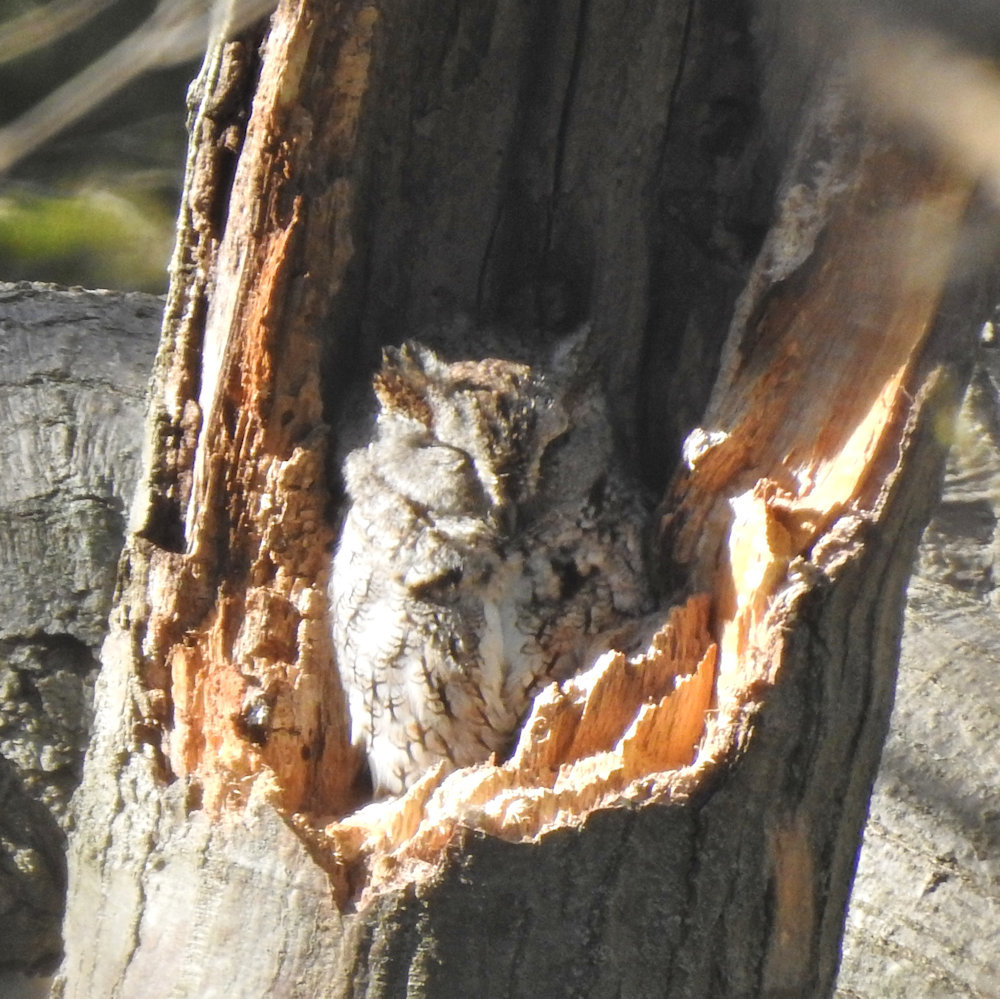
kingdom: Animalia
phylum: Chordata
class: Aves
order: Strigiformes
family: Strigidae
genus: Megascops
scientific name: Megascops asio
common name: Eastern screech-owl
